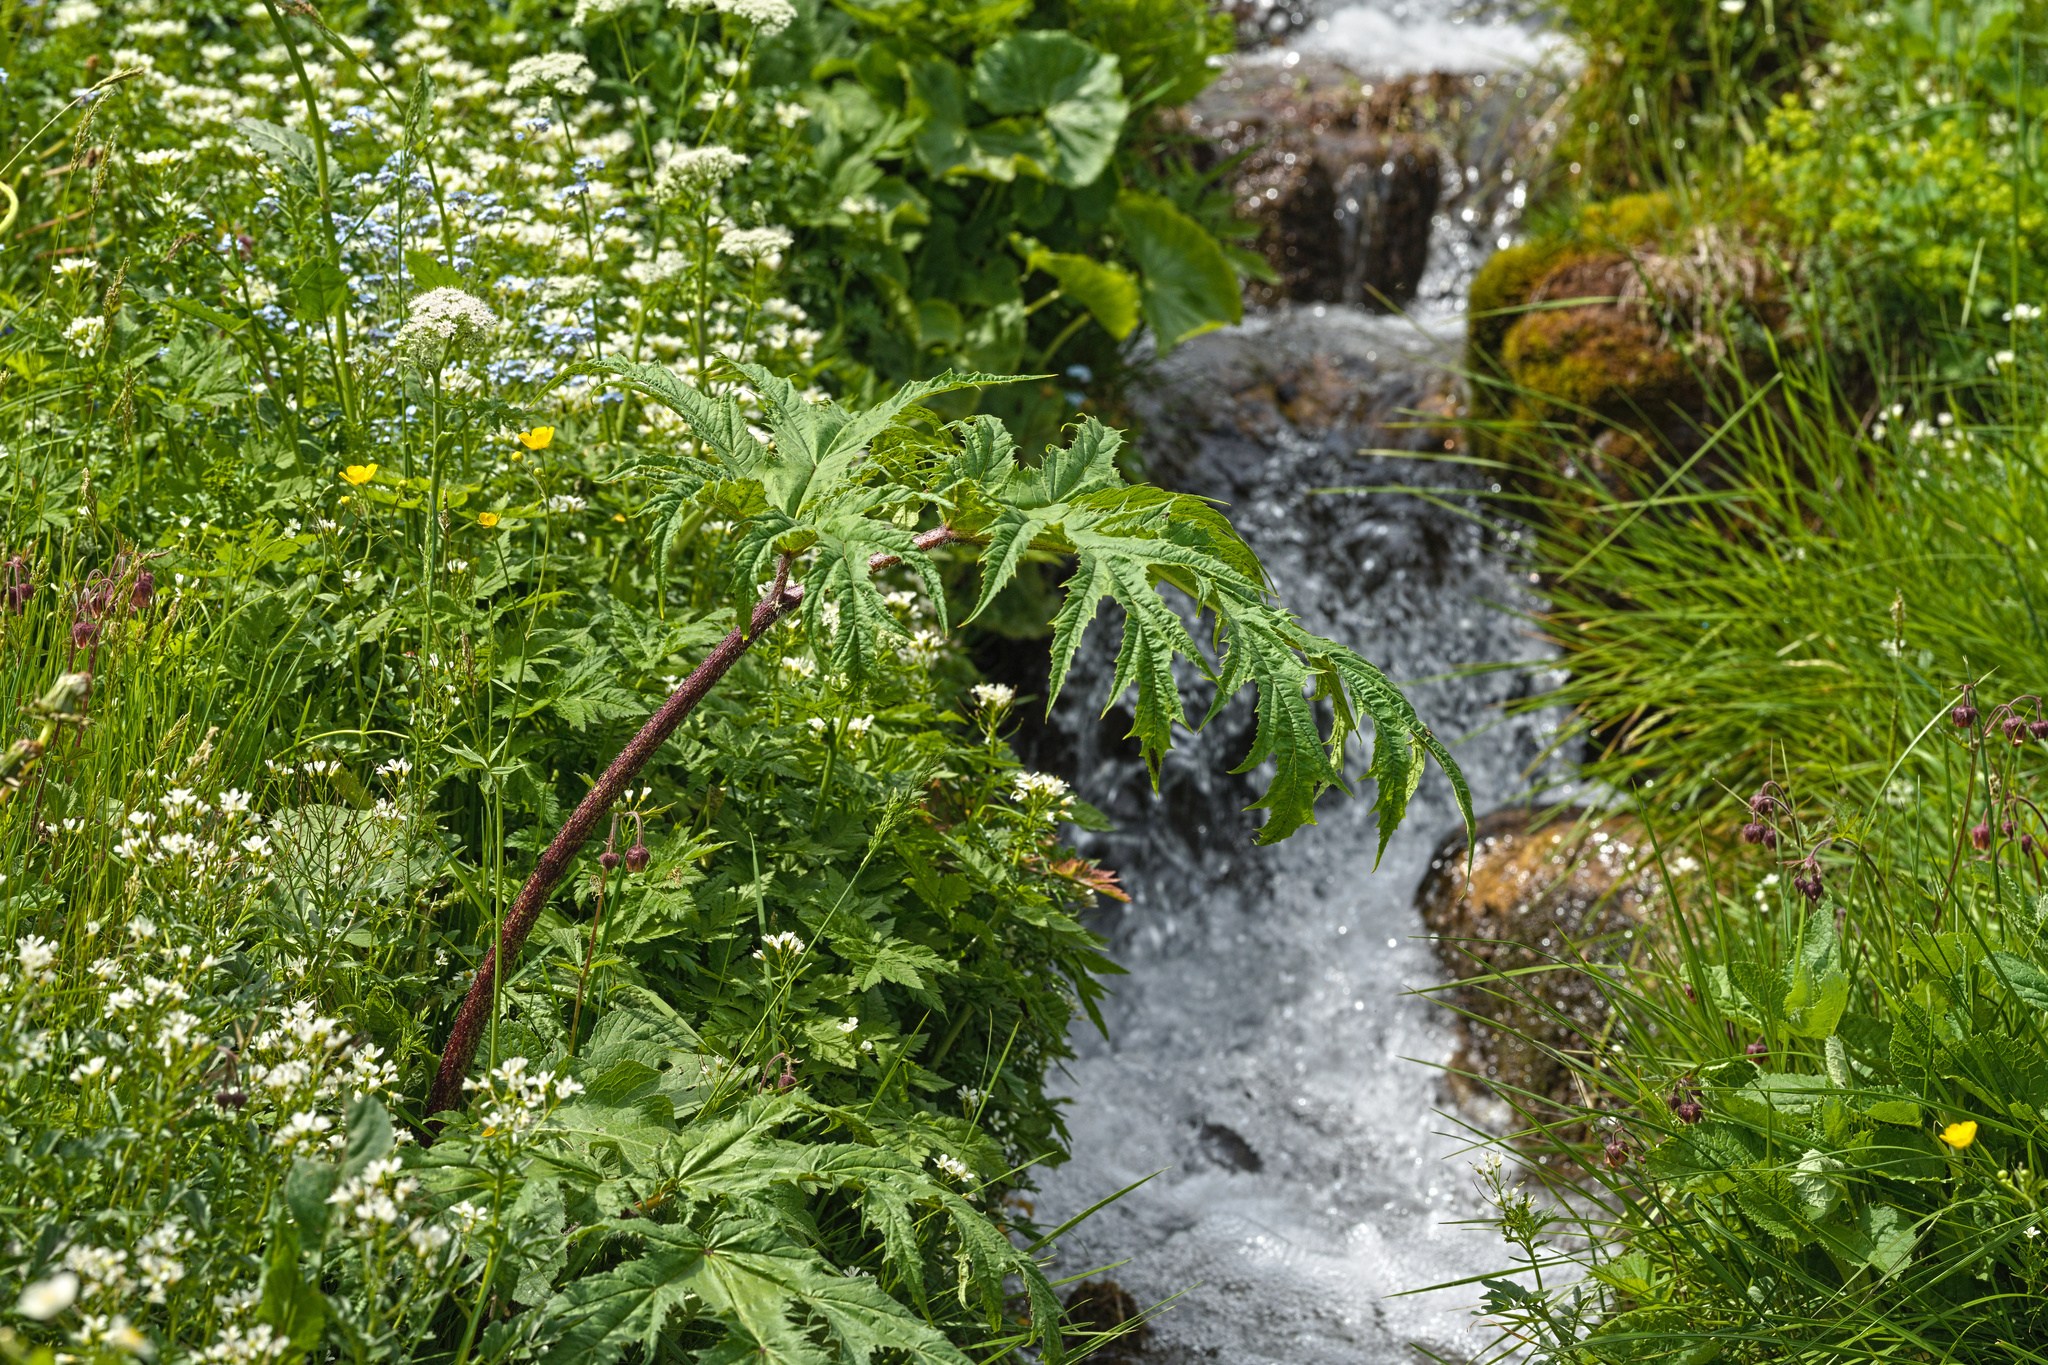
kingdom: Plantae
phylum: Tracheophyta
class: Magnoliopsida
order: Apiales
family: Apiaceae
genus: Heracleum
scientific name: Heracleum mantegazzianum
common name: Giant hogweed
